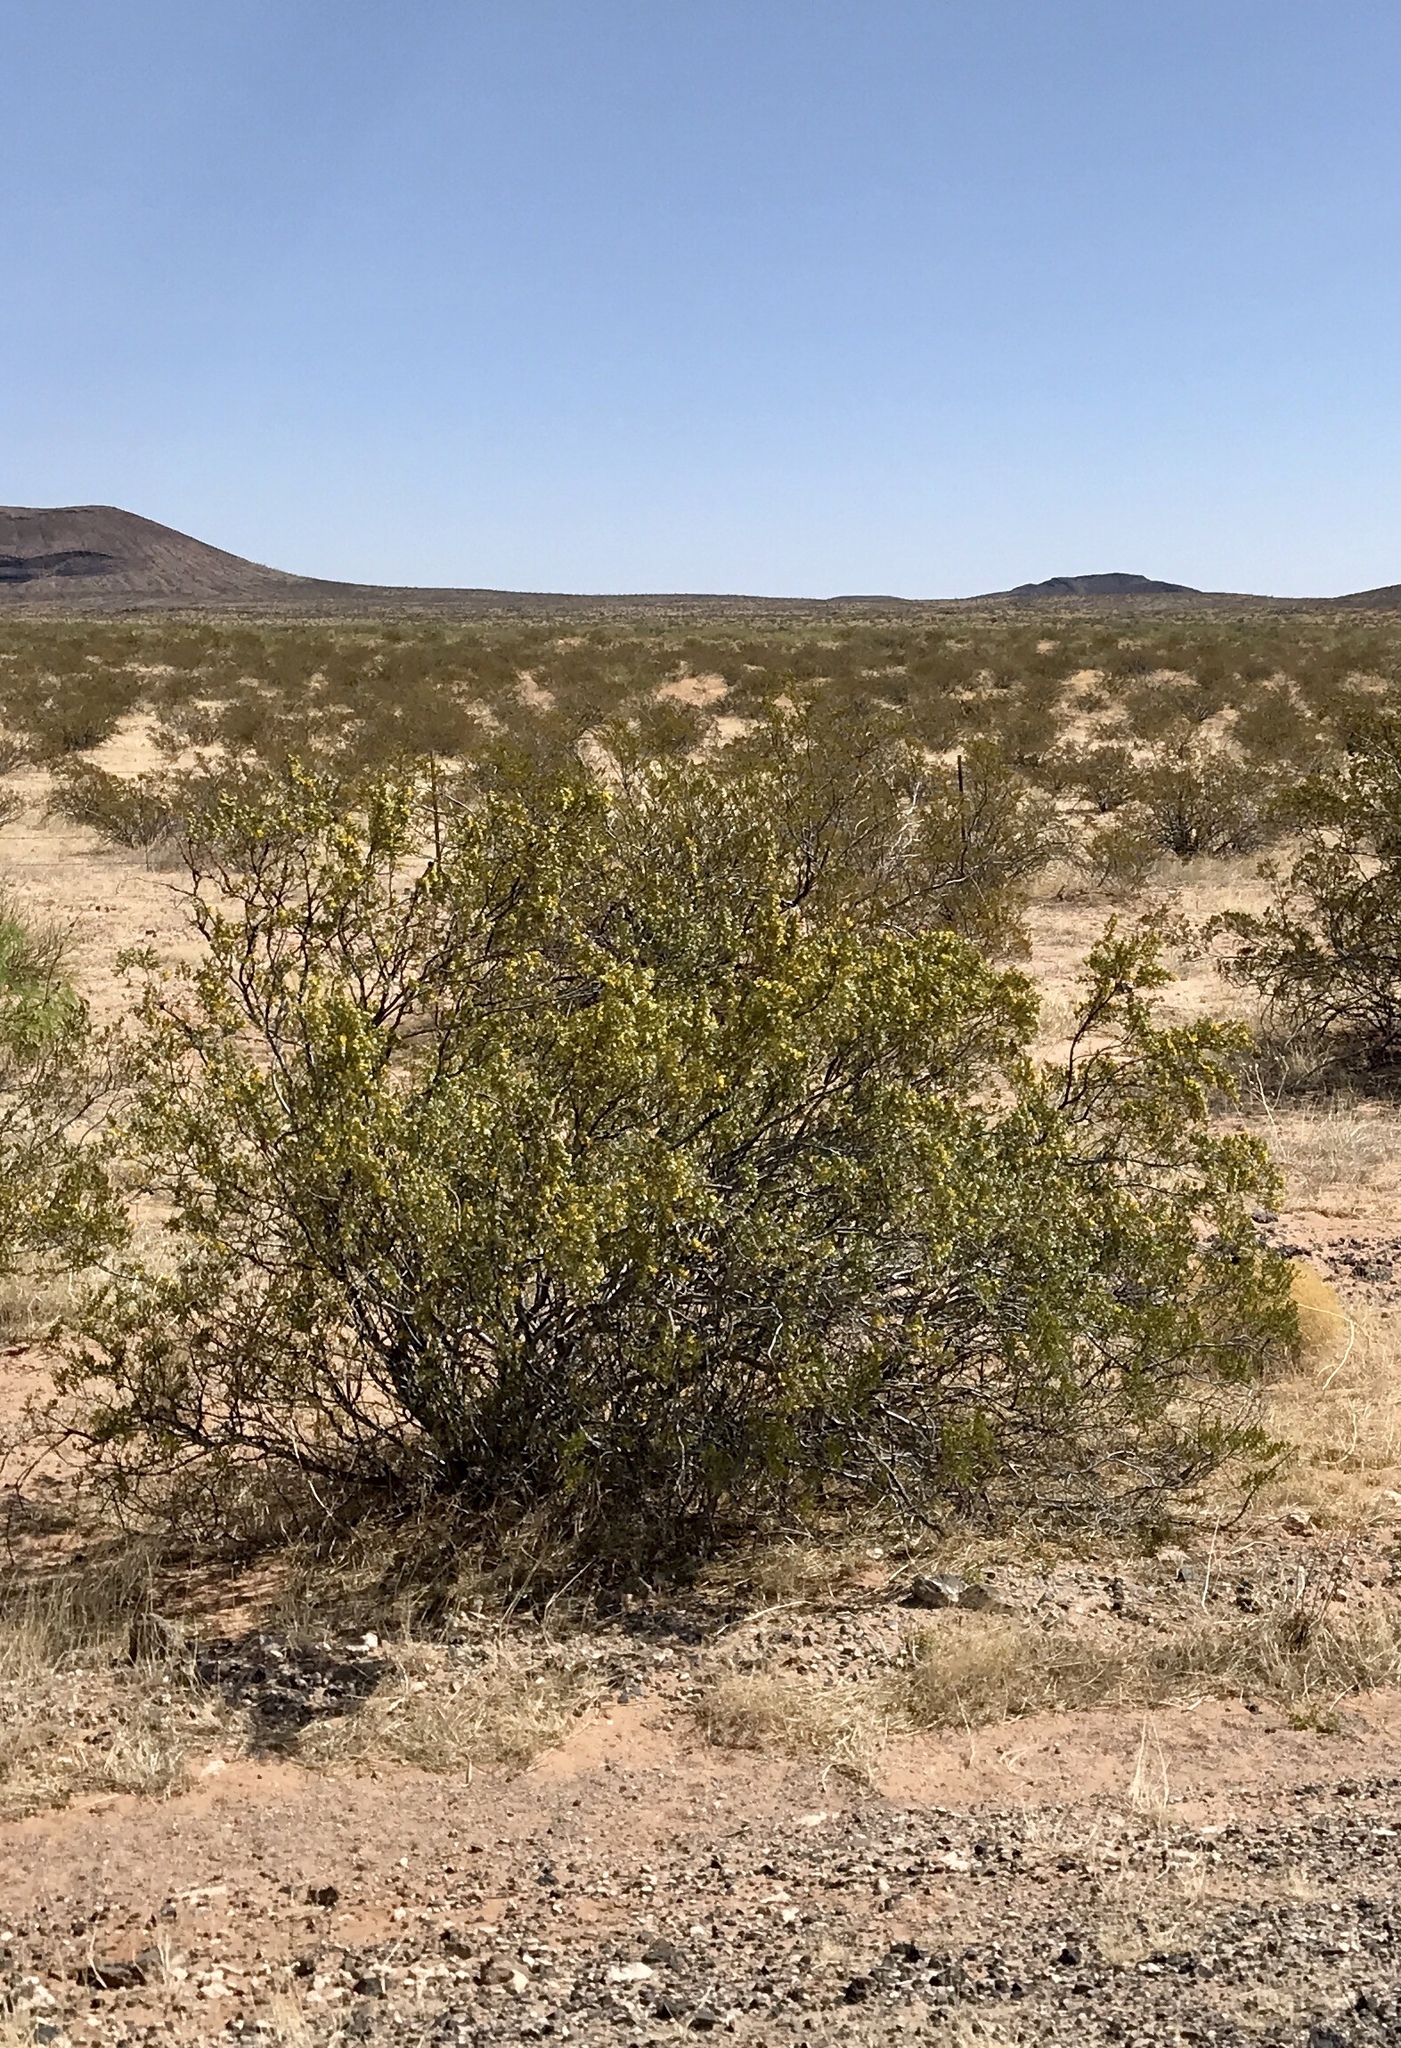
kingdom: Plantae
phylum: Tracheophyta
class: Magnoliopsida
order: Zygophyllales
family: Zygophyllaceae
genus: Larrea
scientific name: Larrea tridentata
